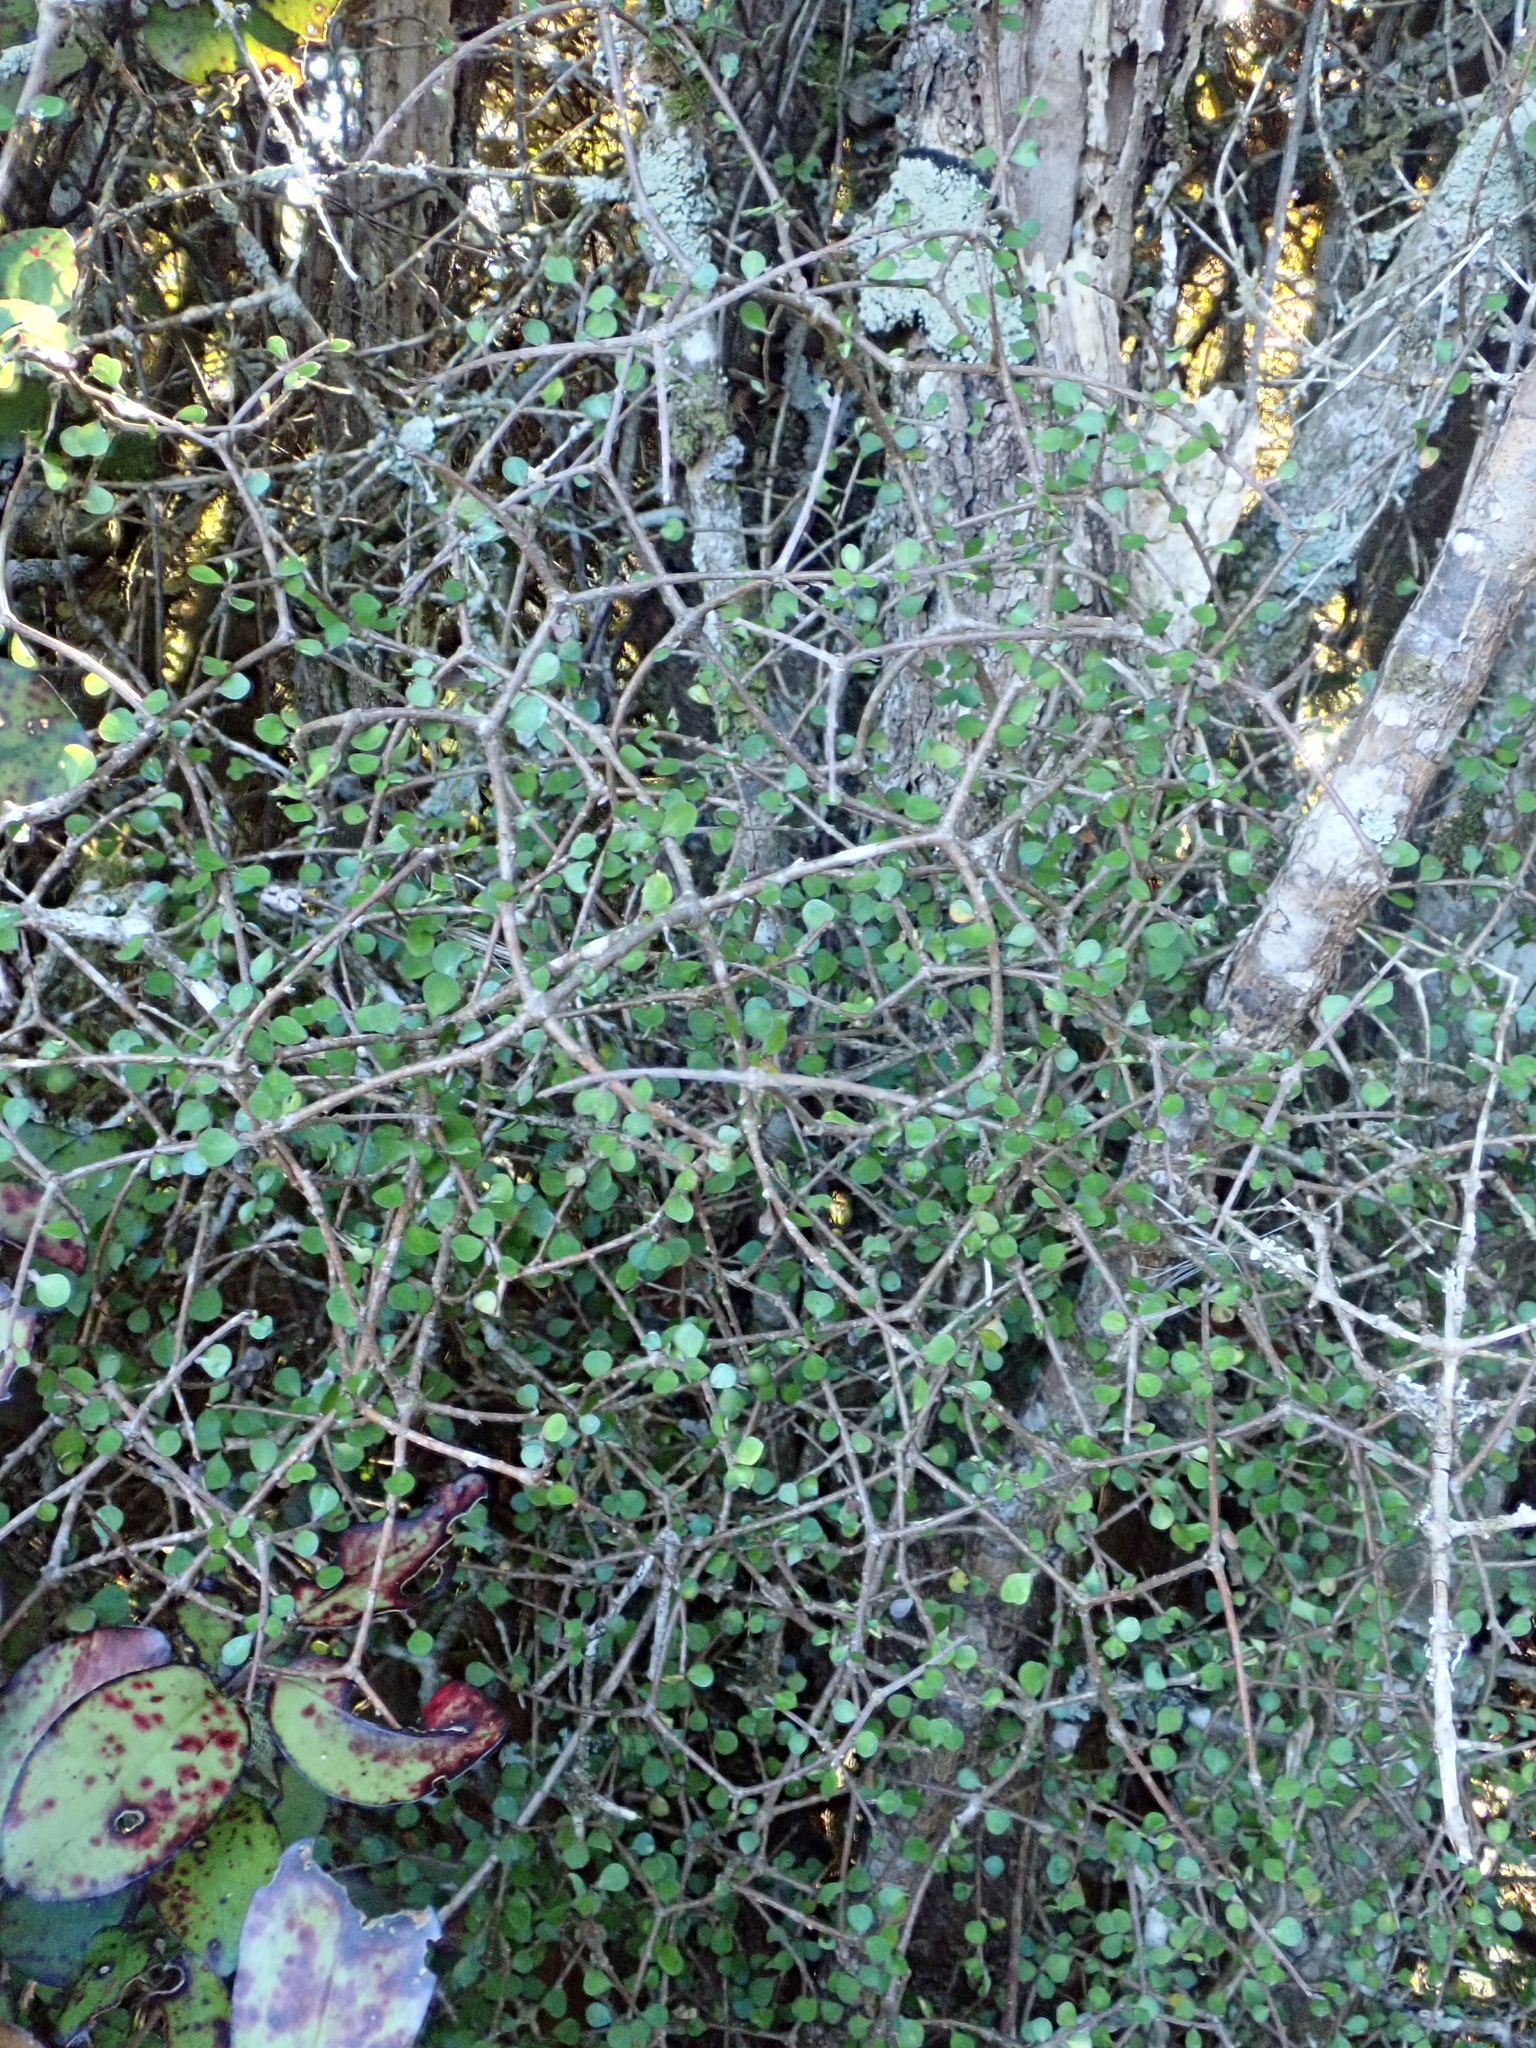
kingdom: Plantae
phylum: Tracheophyta
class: Magnoliopsida
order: Apiales
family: Pittosporaceae
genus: Pittosporum
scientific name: Pittosporum obcordatum
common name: Heart-leaved kohuhu
